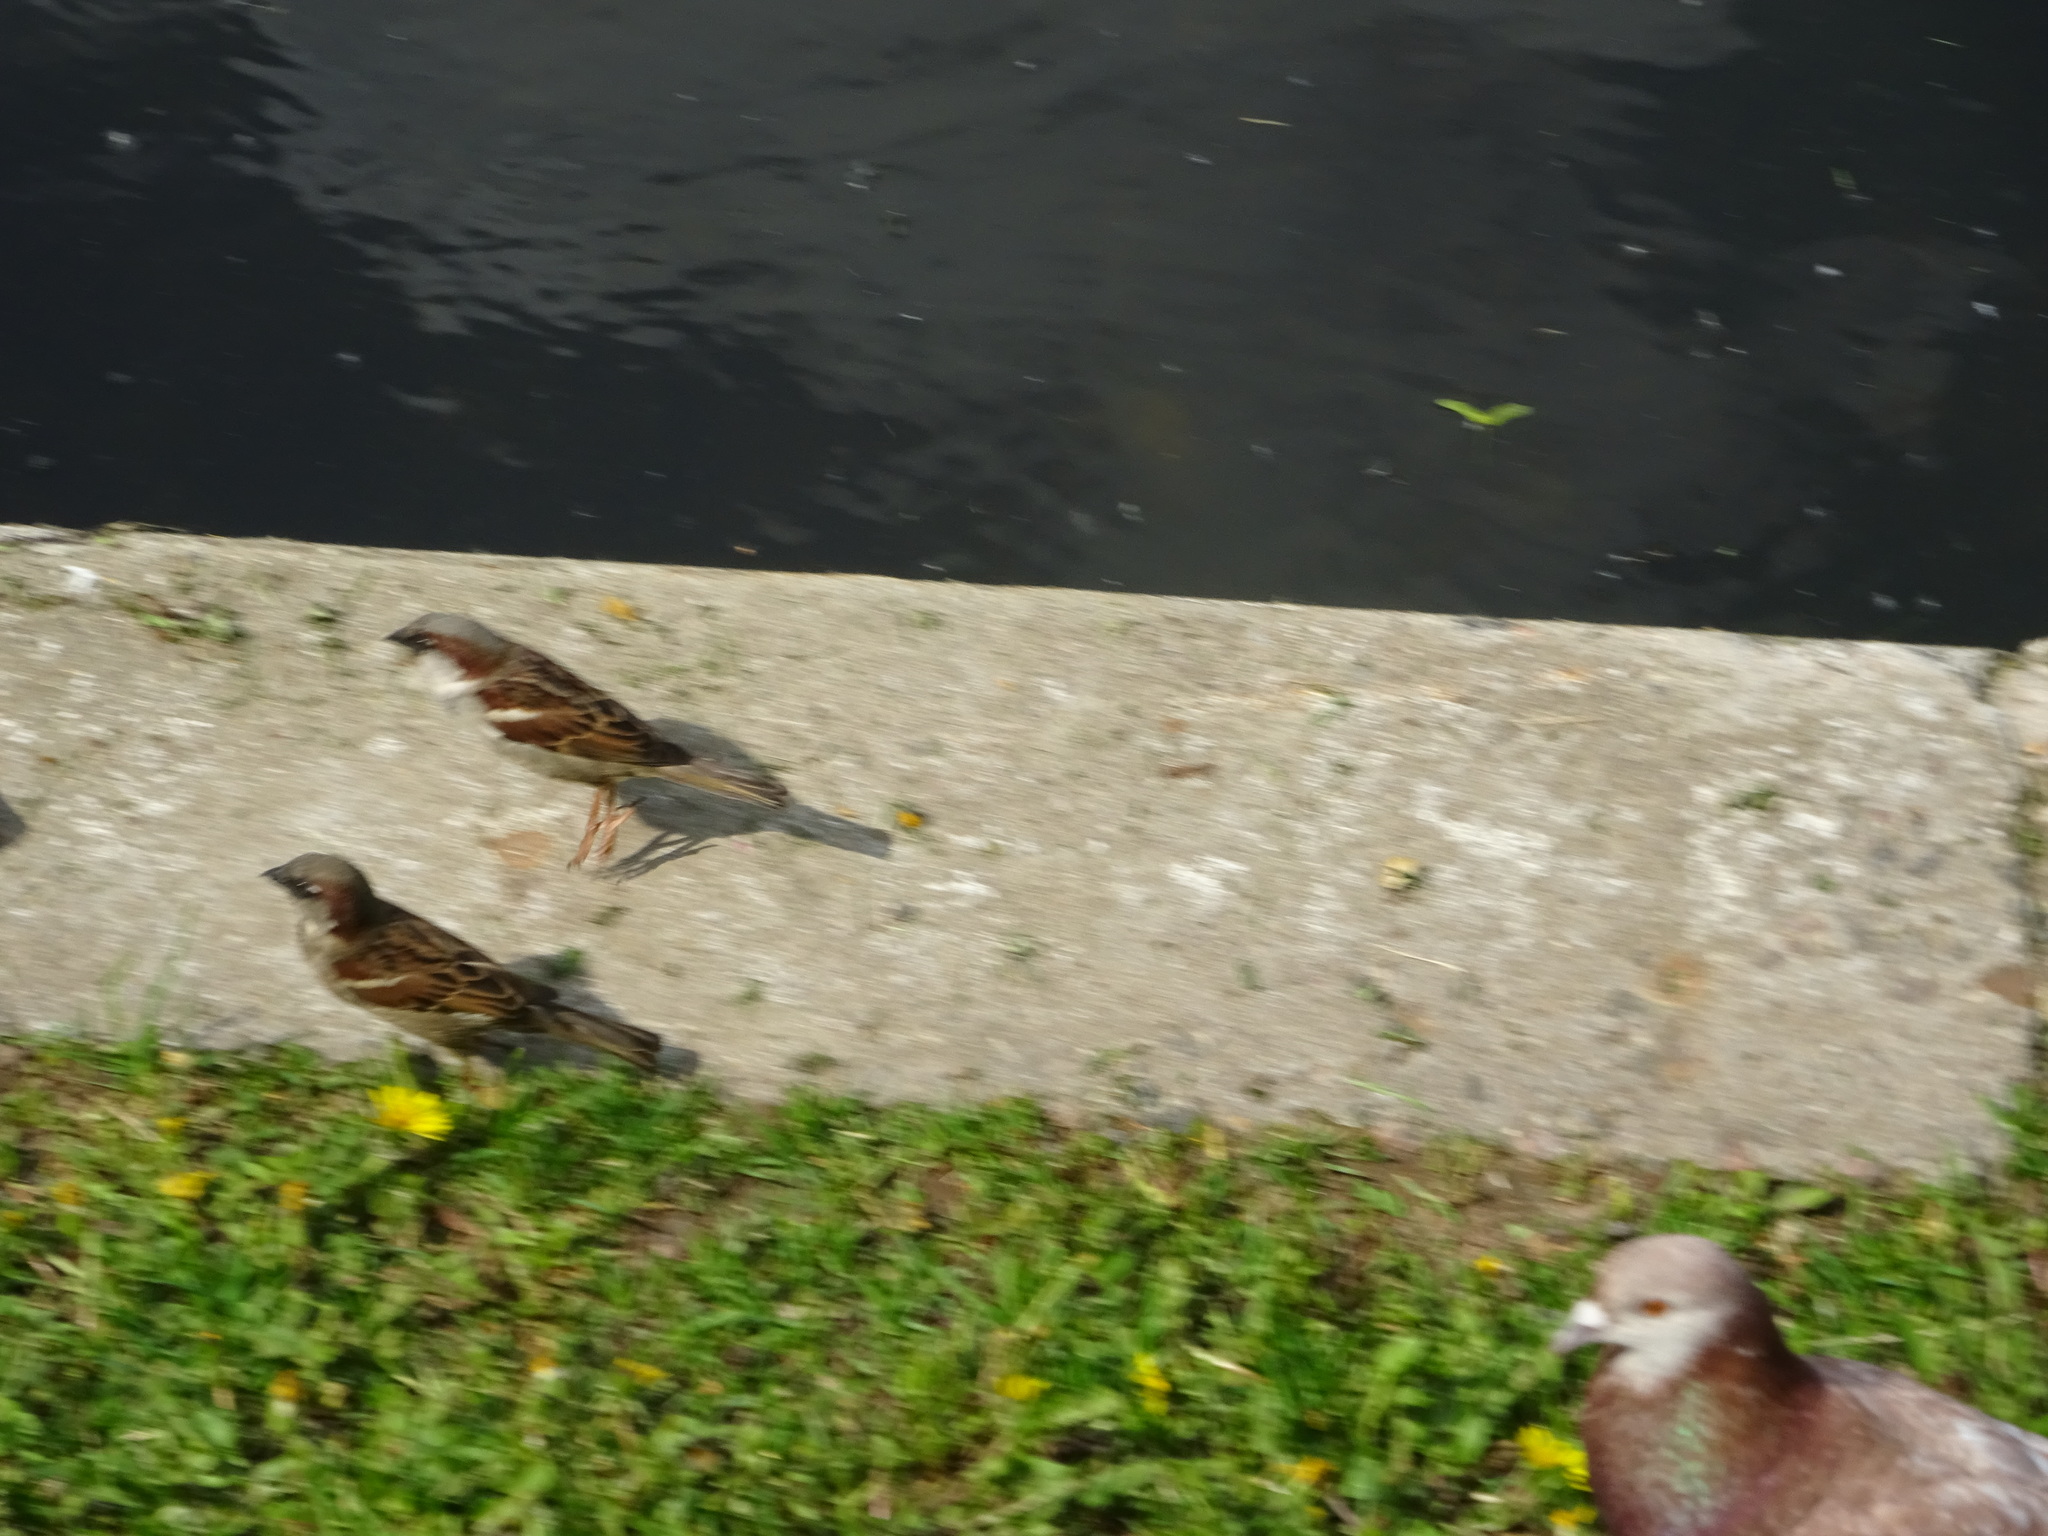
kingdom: Animalia
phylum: Chordata
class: Aves
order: Passeriformes
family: Passeridae
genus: Passer
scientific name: Passer domesticus
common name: House sparrow
